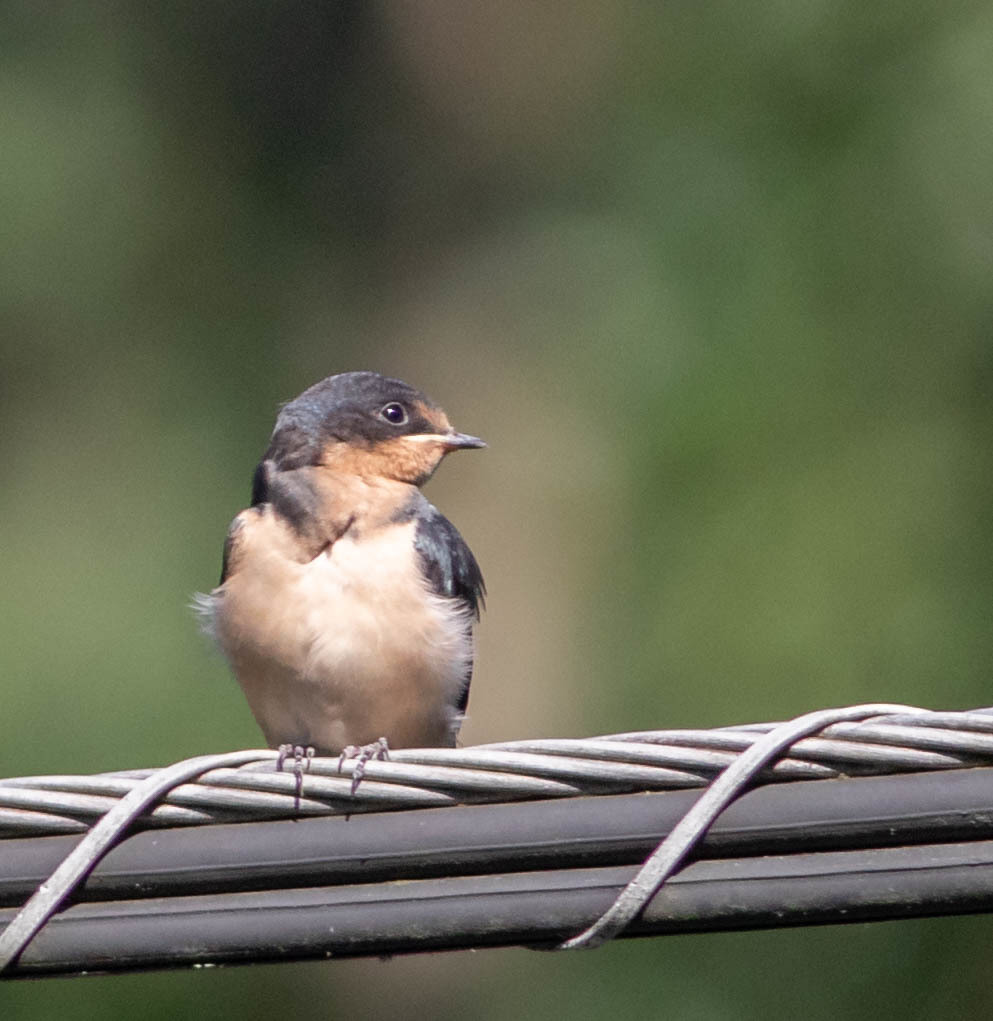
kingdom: Animalia
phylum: Chordata
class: Aves
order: Passeriformes
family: Hirundinidae
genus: Hirundo
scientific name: Hirundo rustica
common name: Barn swallow
